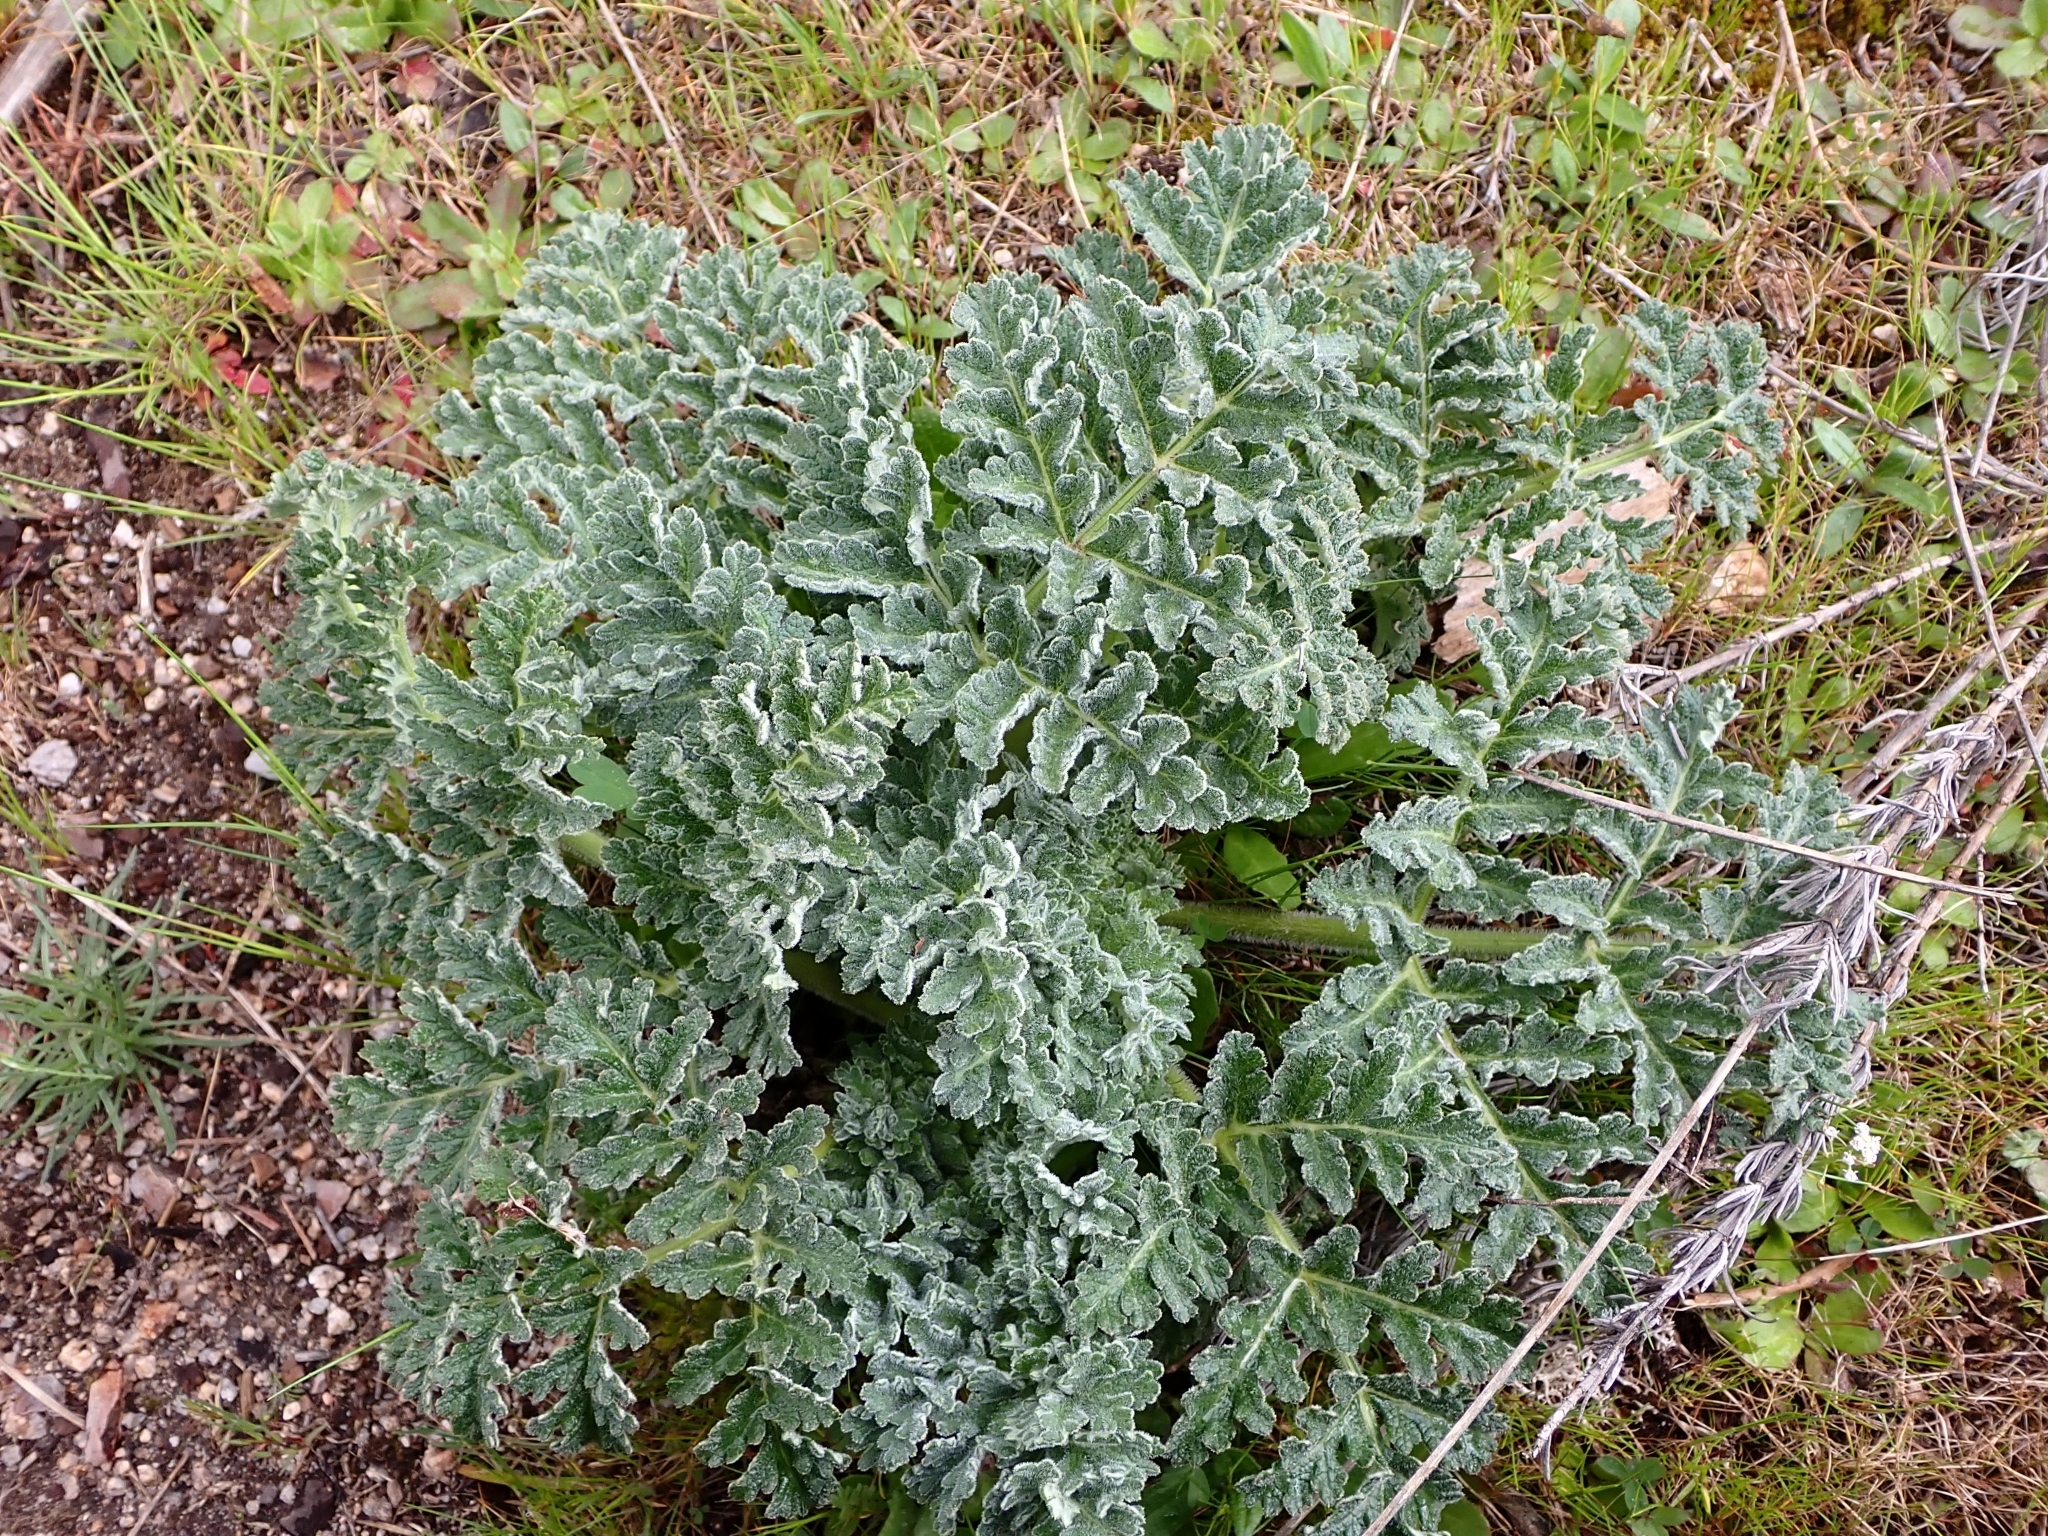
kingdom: Plantae
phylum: Tracheophyta
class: Magnoliopsida
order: Apiales
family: Apiaceae
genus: Thapsia
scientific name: Thapsia villosa
